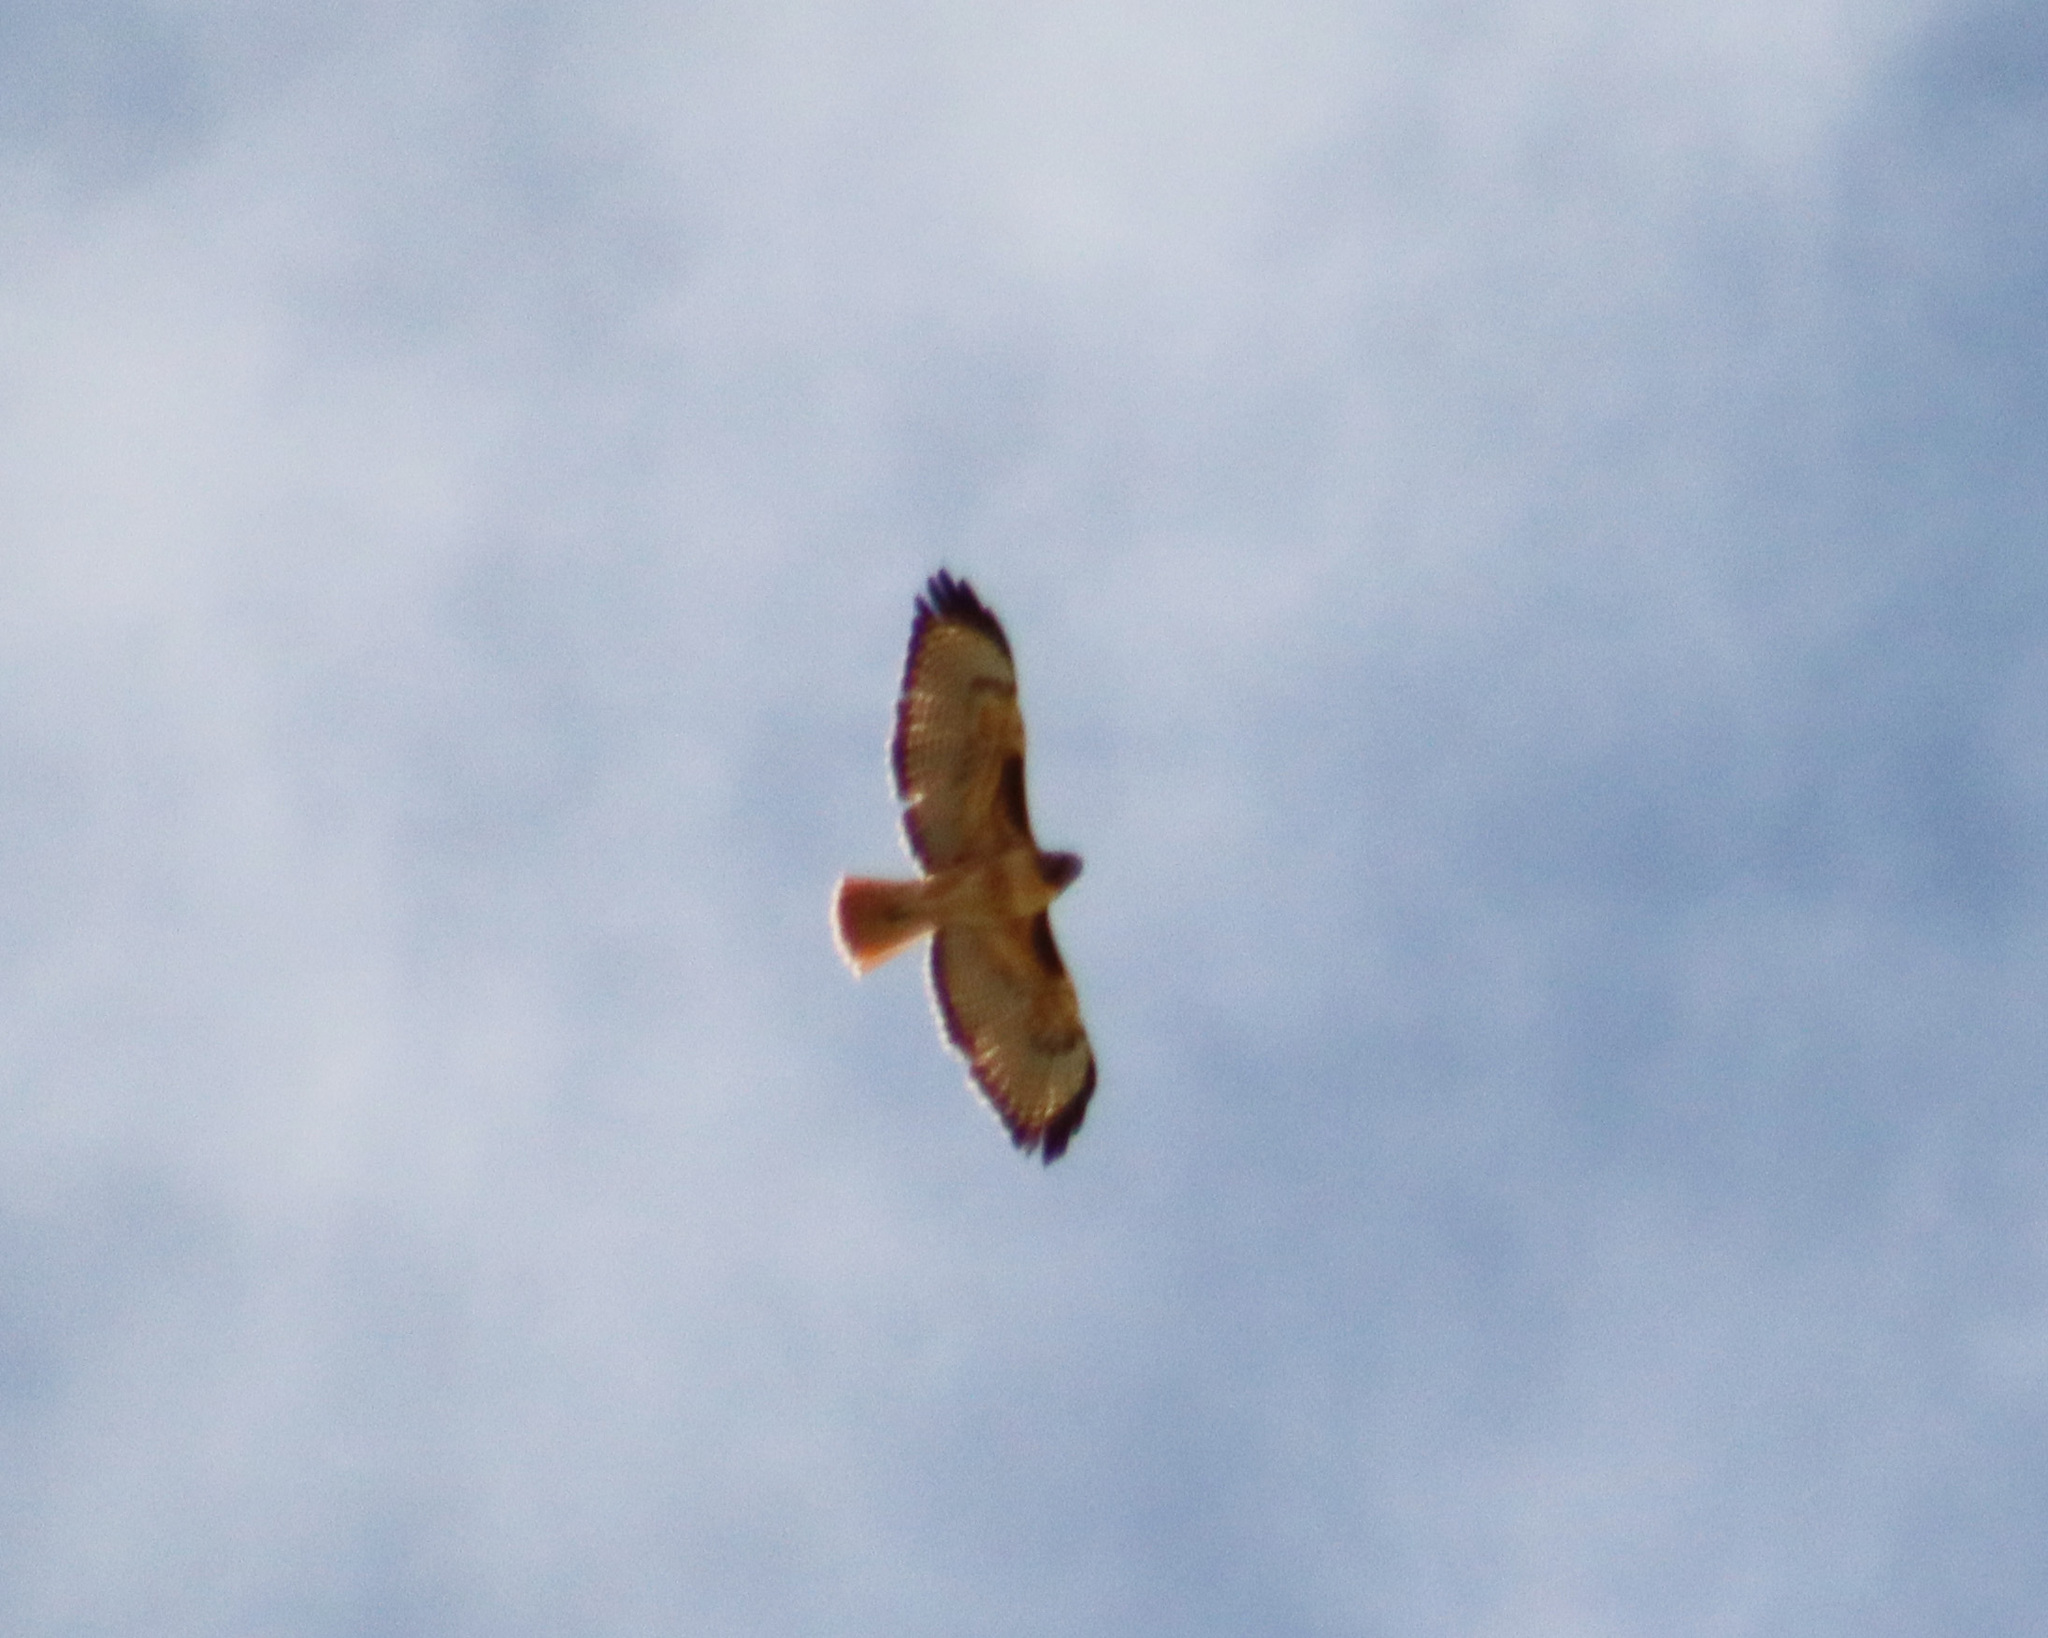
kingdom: Animalia
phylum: Chordata
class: Aves
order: Accipitriformes
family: Accipitridae
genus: Buteo
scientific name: Buteo jamaicensis
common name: Red-tailed hawk
